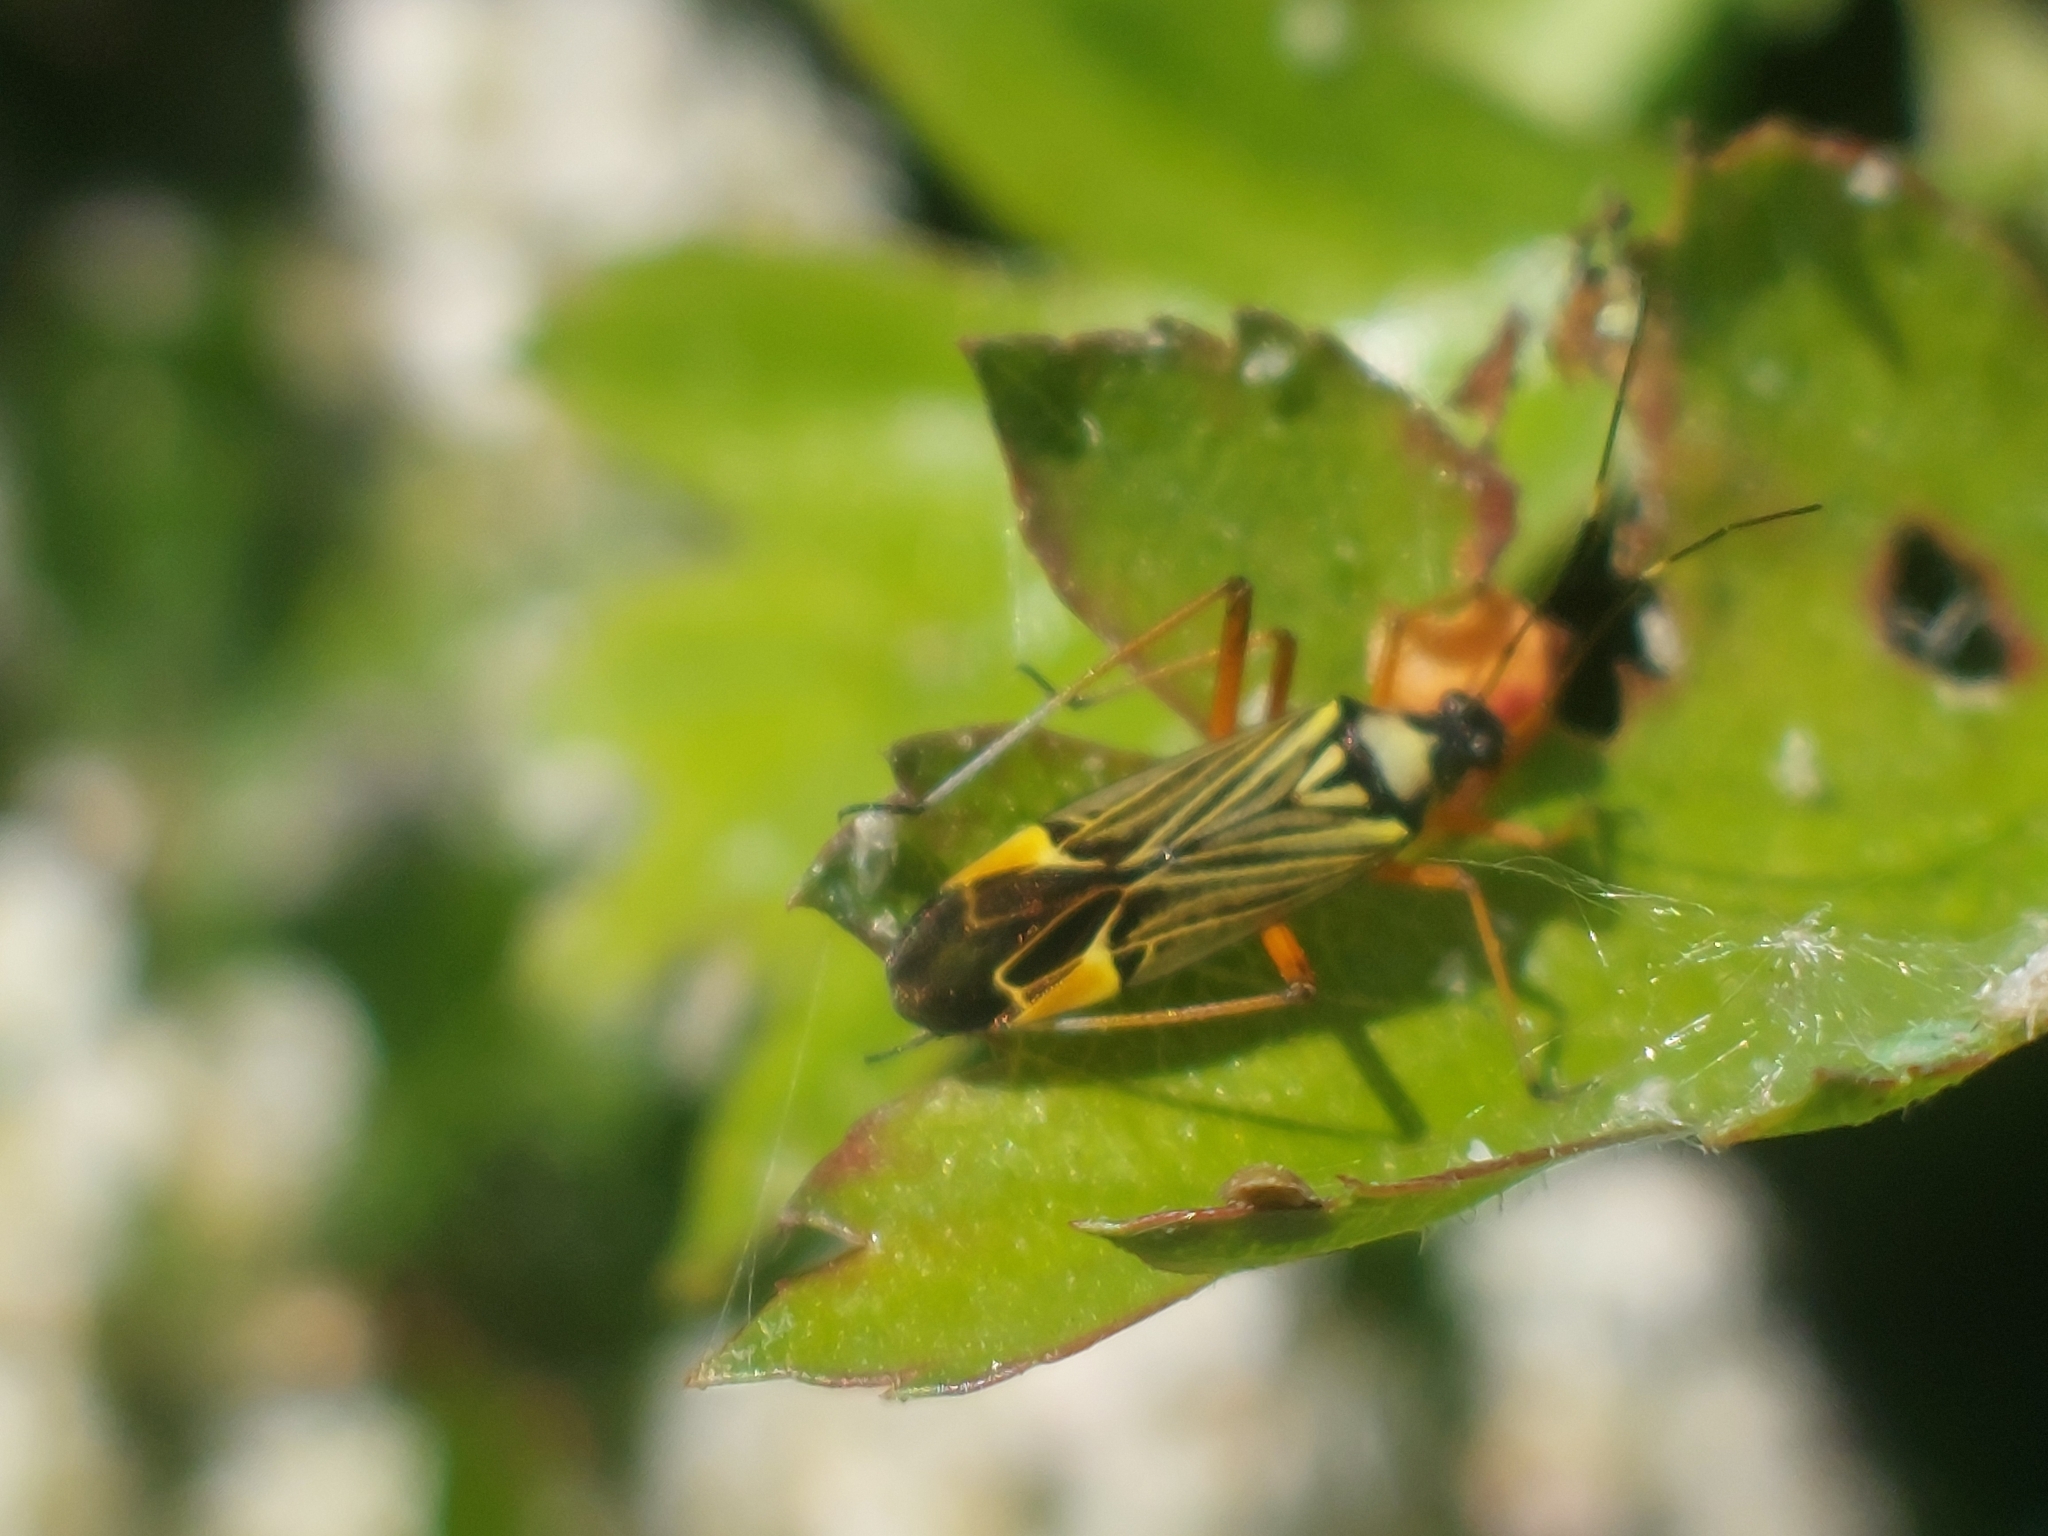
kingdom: Animalia
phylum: Arthropoda
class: Insecta
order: Hemiptera
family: Miridae
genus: Miris
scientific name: Miris striatus
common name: Fine streaked bugkin
